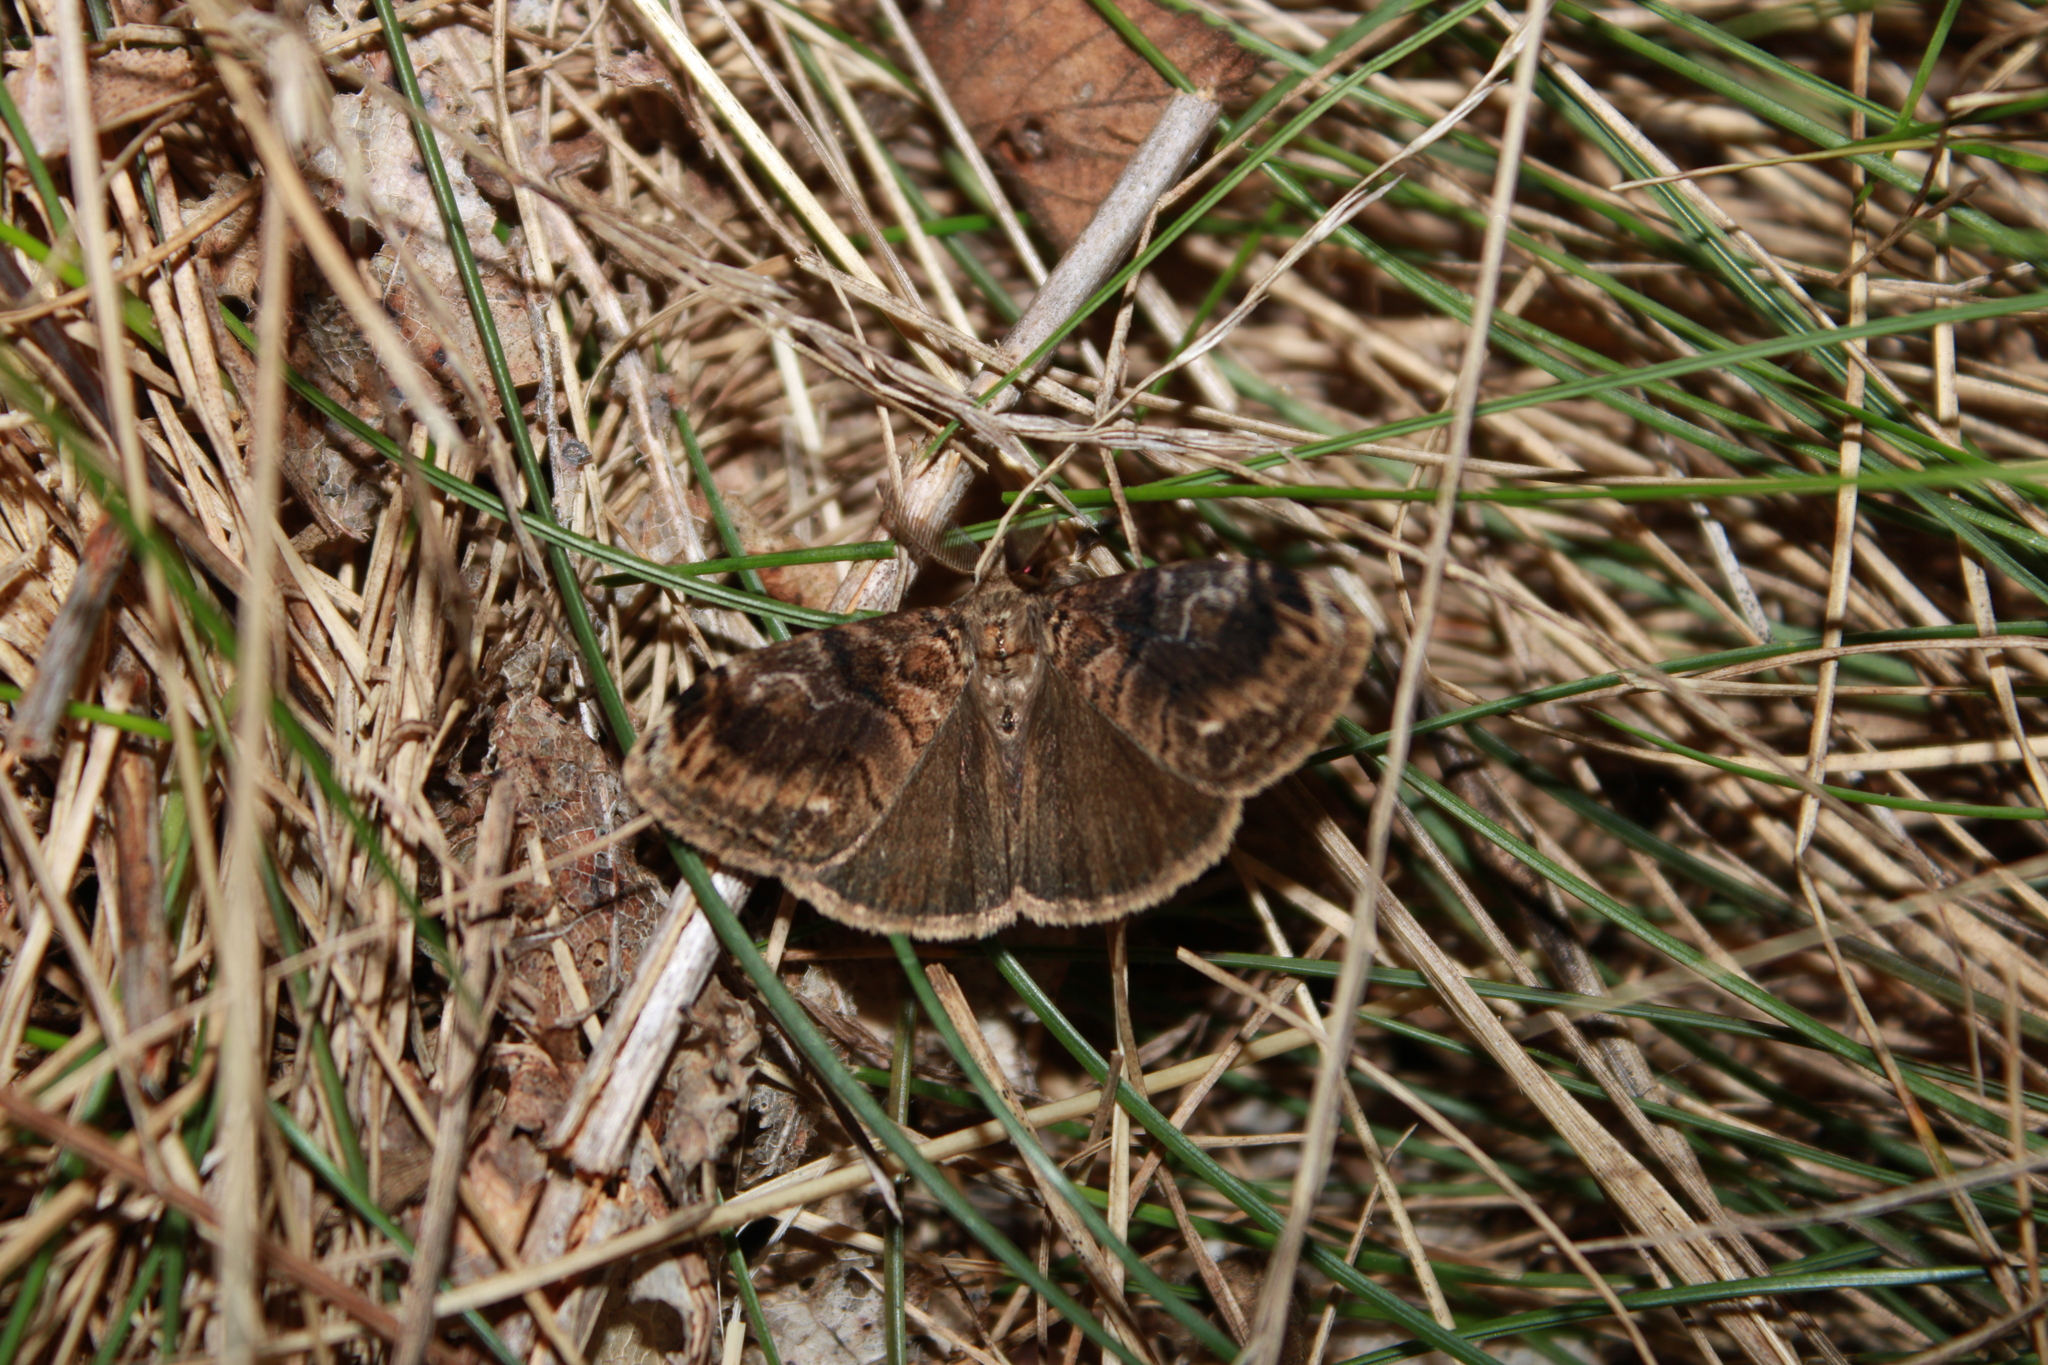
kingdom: Animalia
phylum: Arthropoda
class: Insecta
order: Lepidoptera
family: Erebidae
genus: Orgyia
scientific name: Orgyia definita
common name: Definite tussock moth
